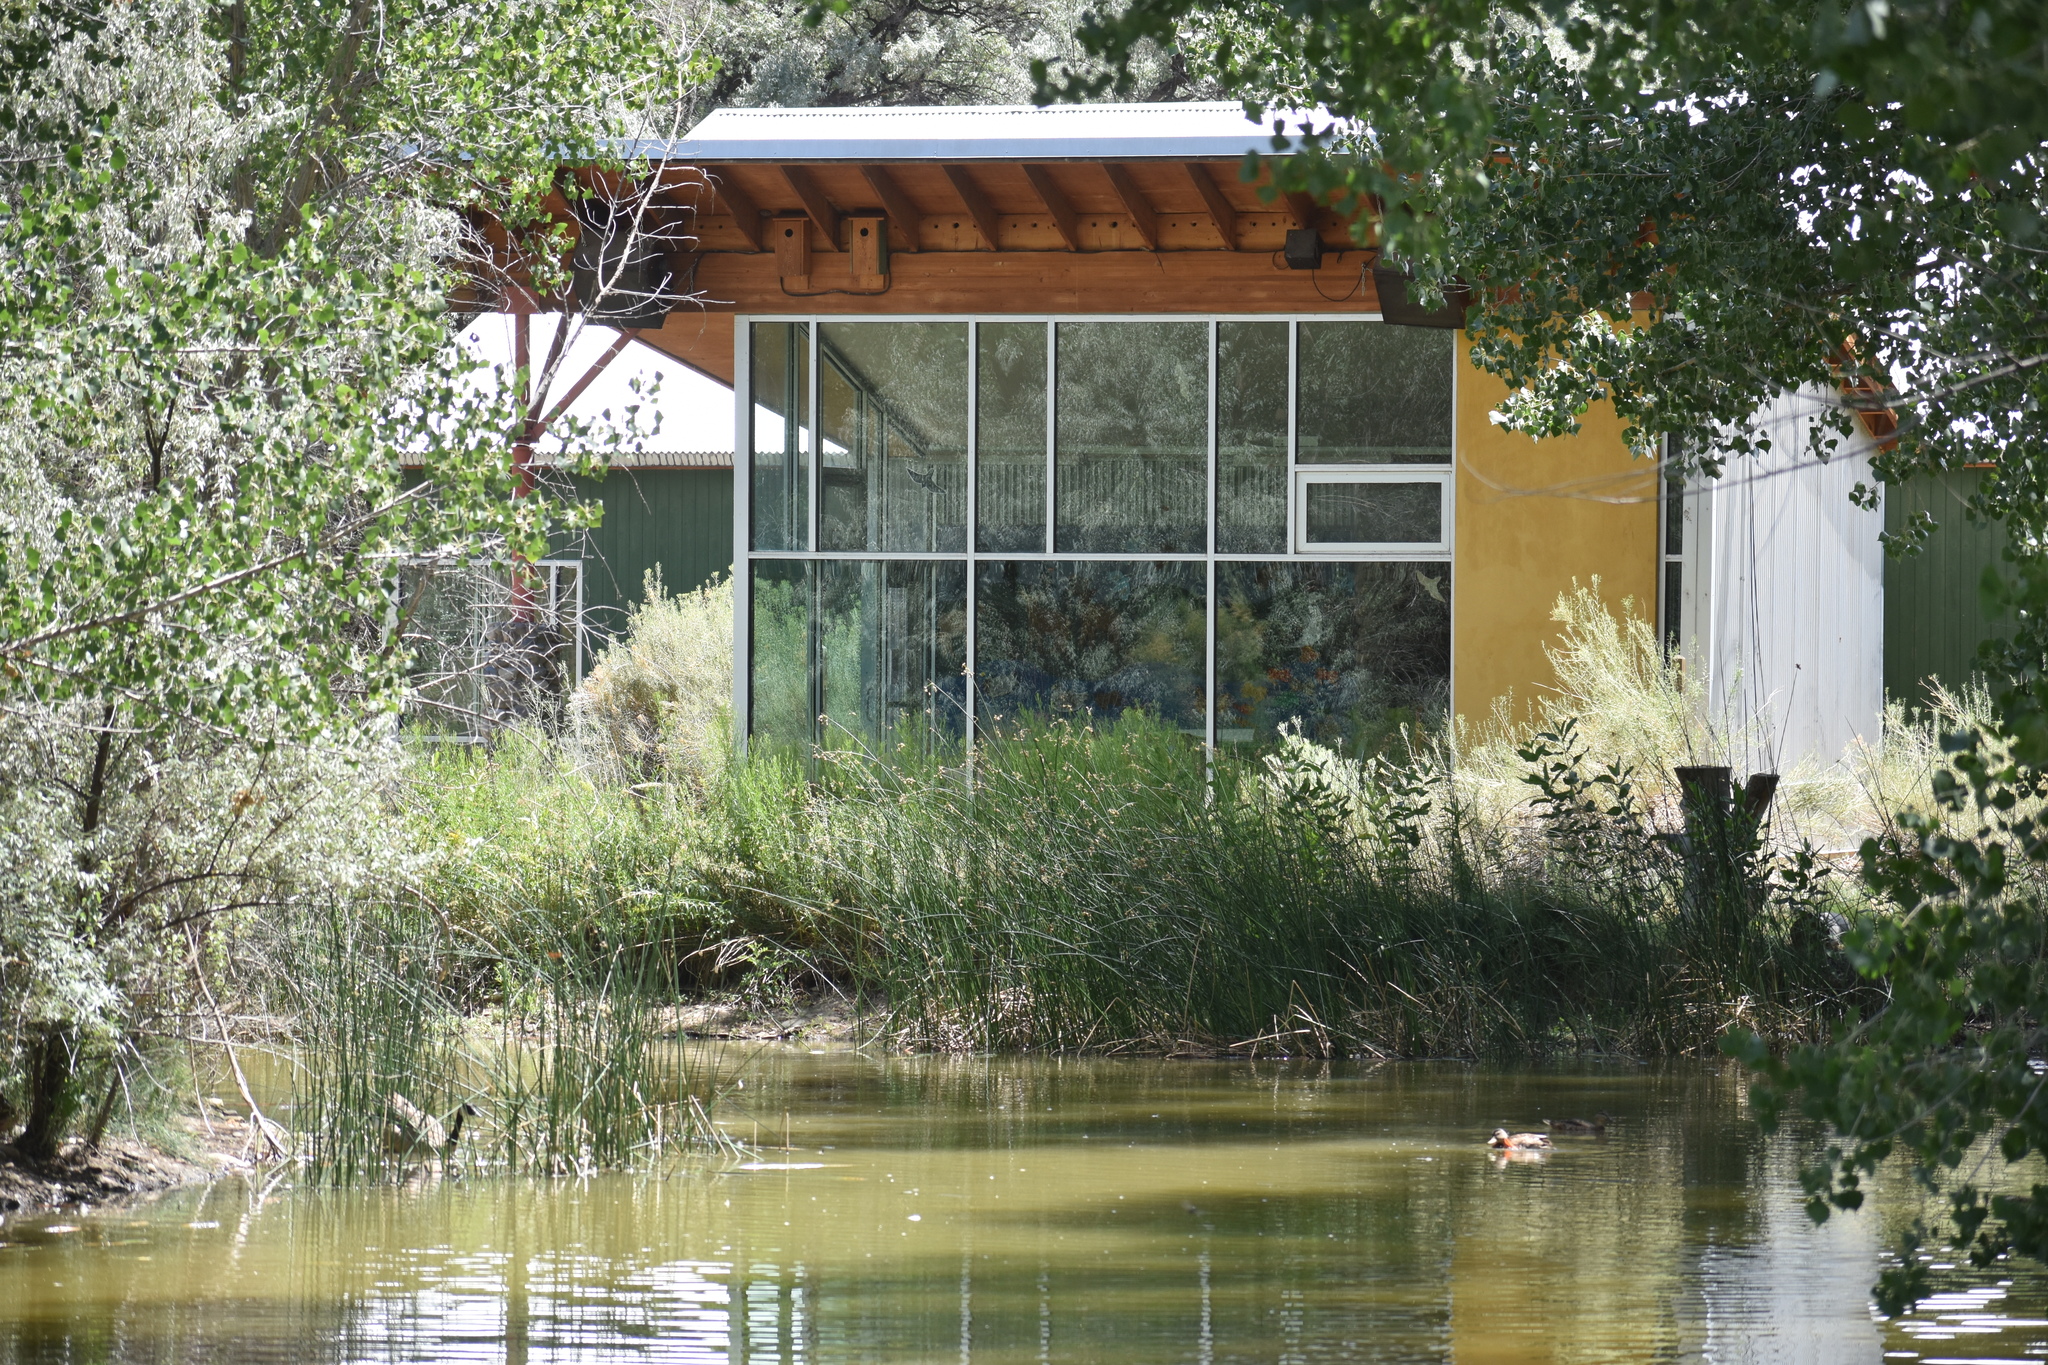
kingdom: Animalia
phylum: Chordata
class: Aves
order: Anseriformes
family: Anatidae
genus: Anas
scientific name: Anas platyrhynchos
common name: Mallard
